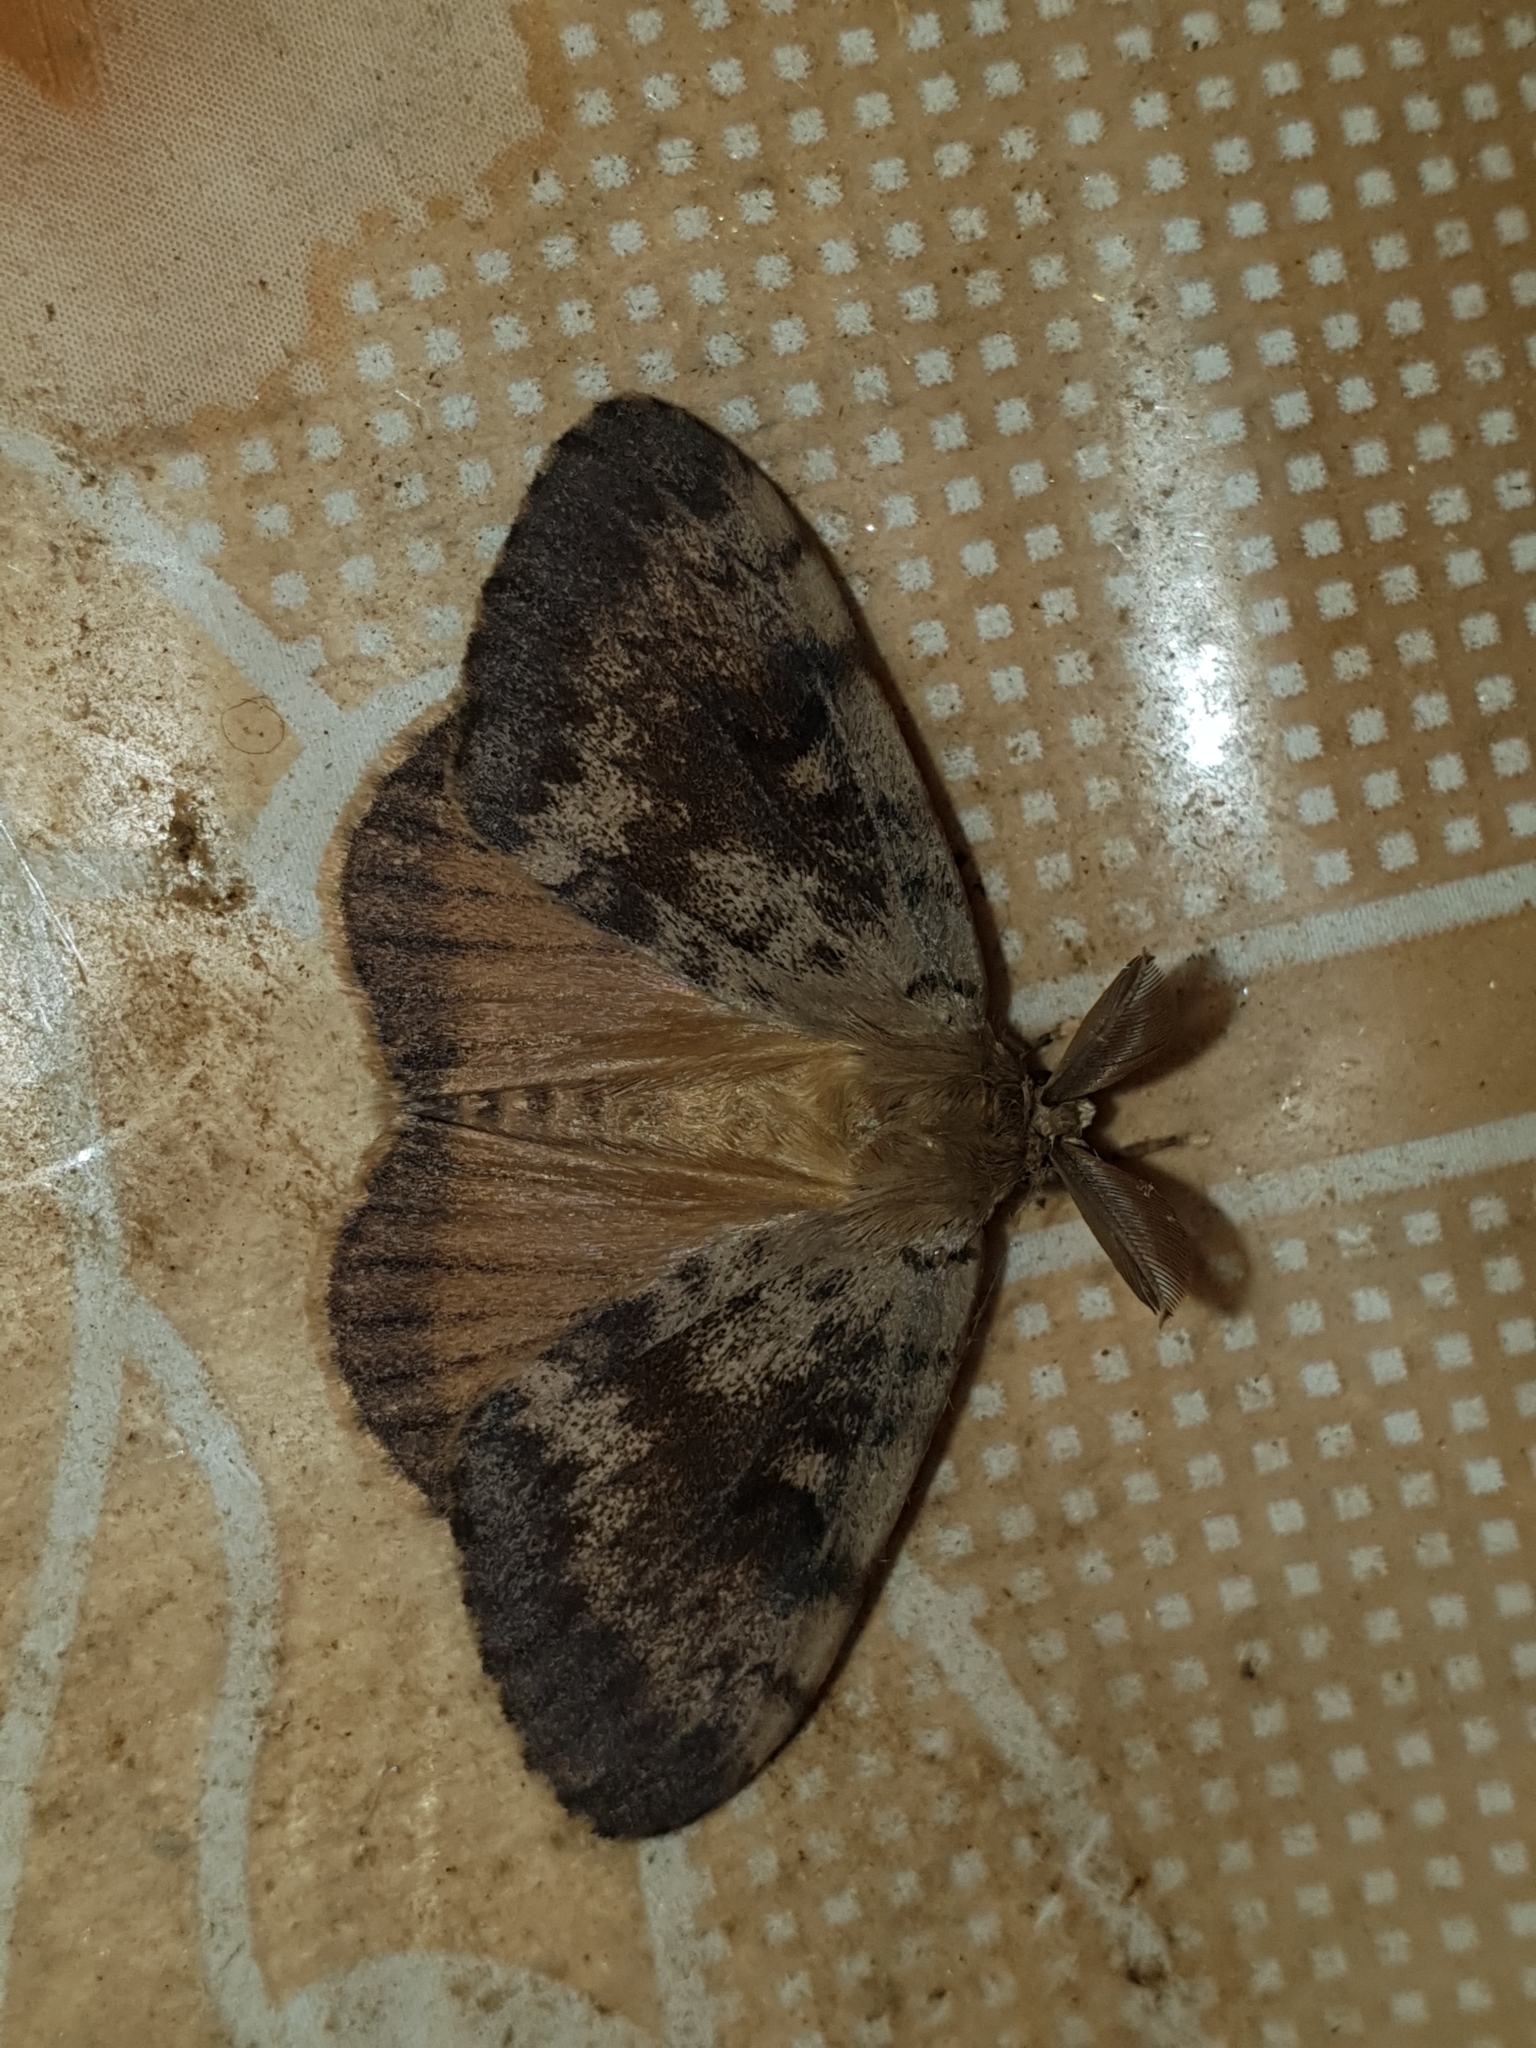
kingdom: Animalia
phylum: Arthropoda
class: Insecta
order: Lepidoptera
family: Erebidae
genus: Lymantria
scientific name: Lymantria dispar
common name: Gypsy moth
